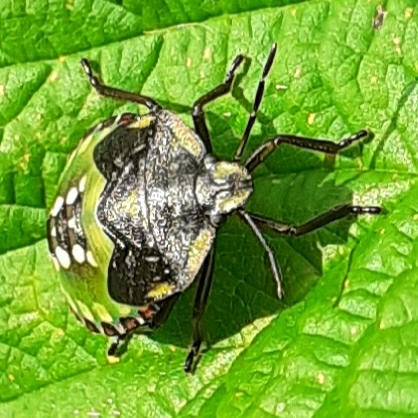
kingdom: Animalia
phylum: Arthropoda
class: Insecta
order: Hemiptera
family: Pentatomidae
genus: Nezara
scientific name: Nezara viridula
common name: Southern green stink bug
